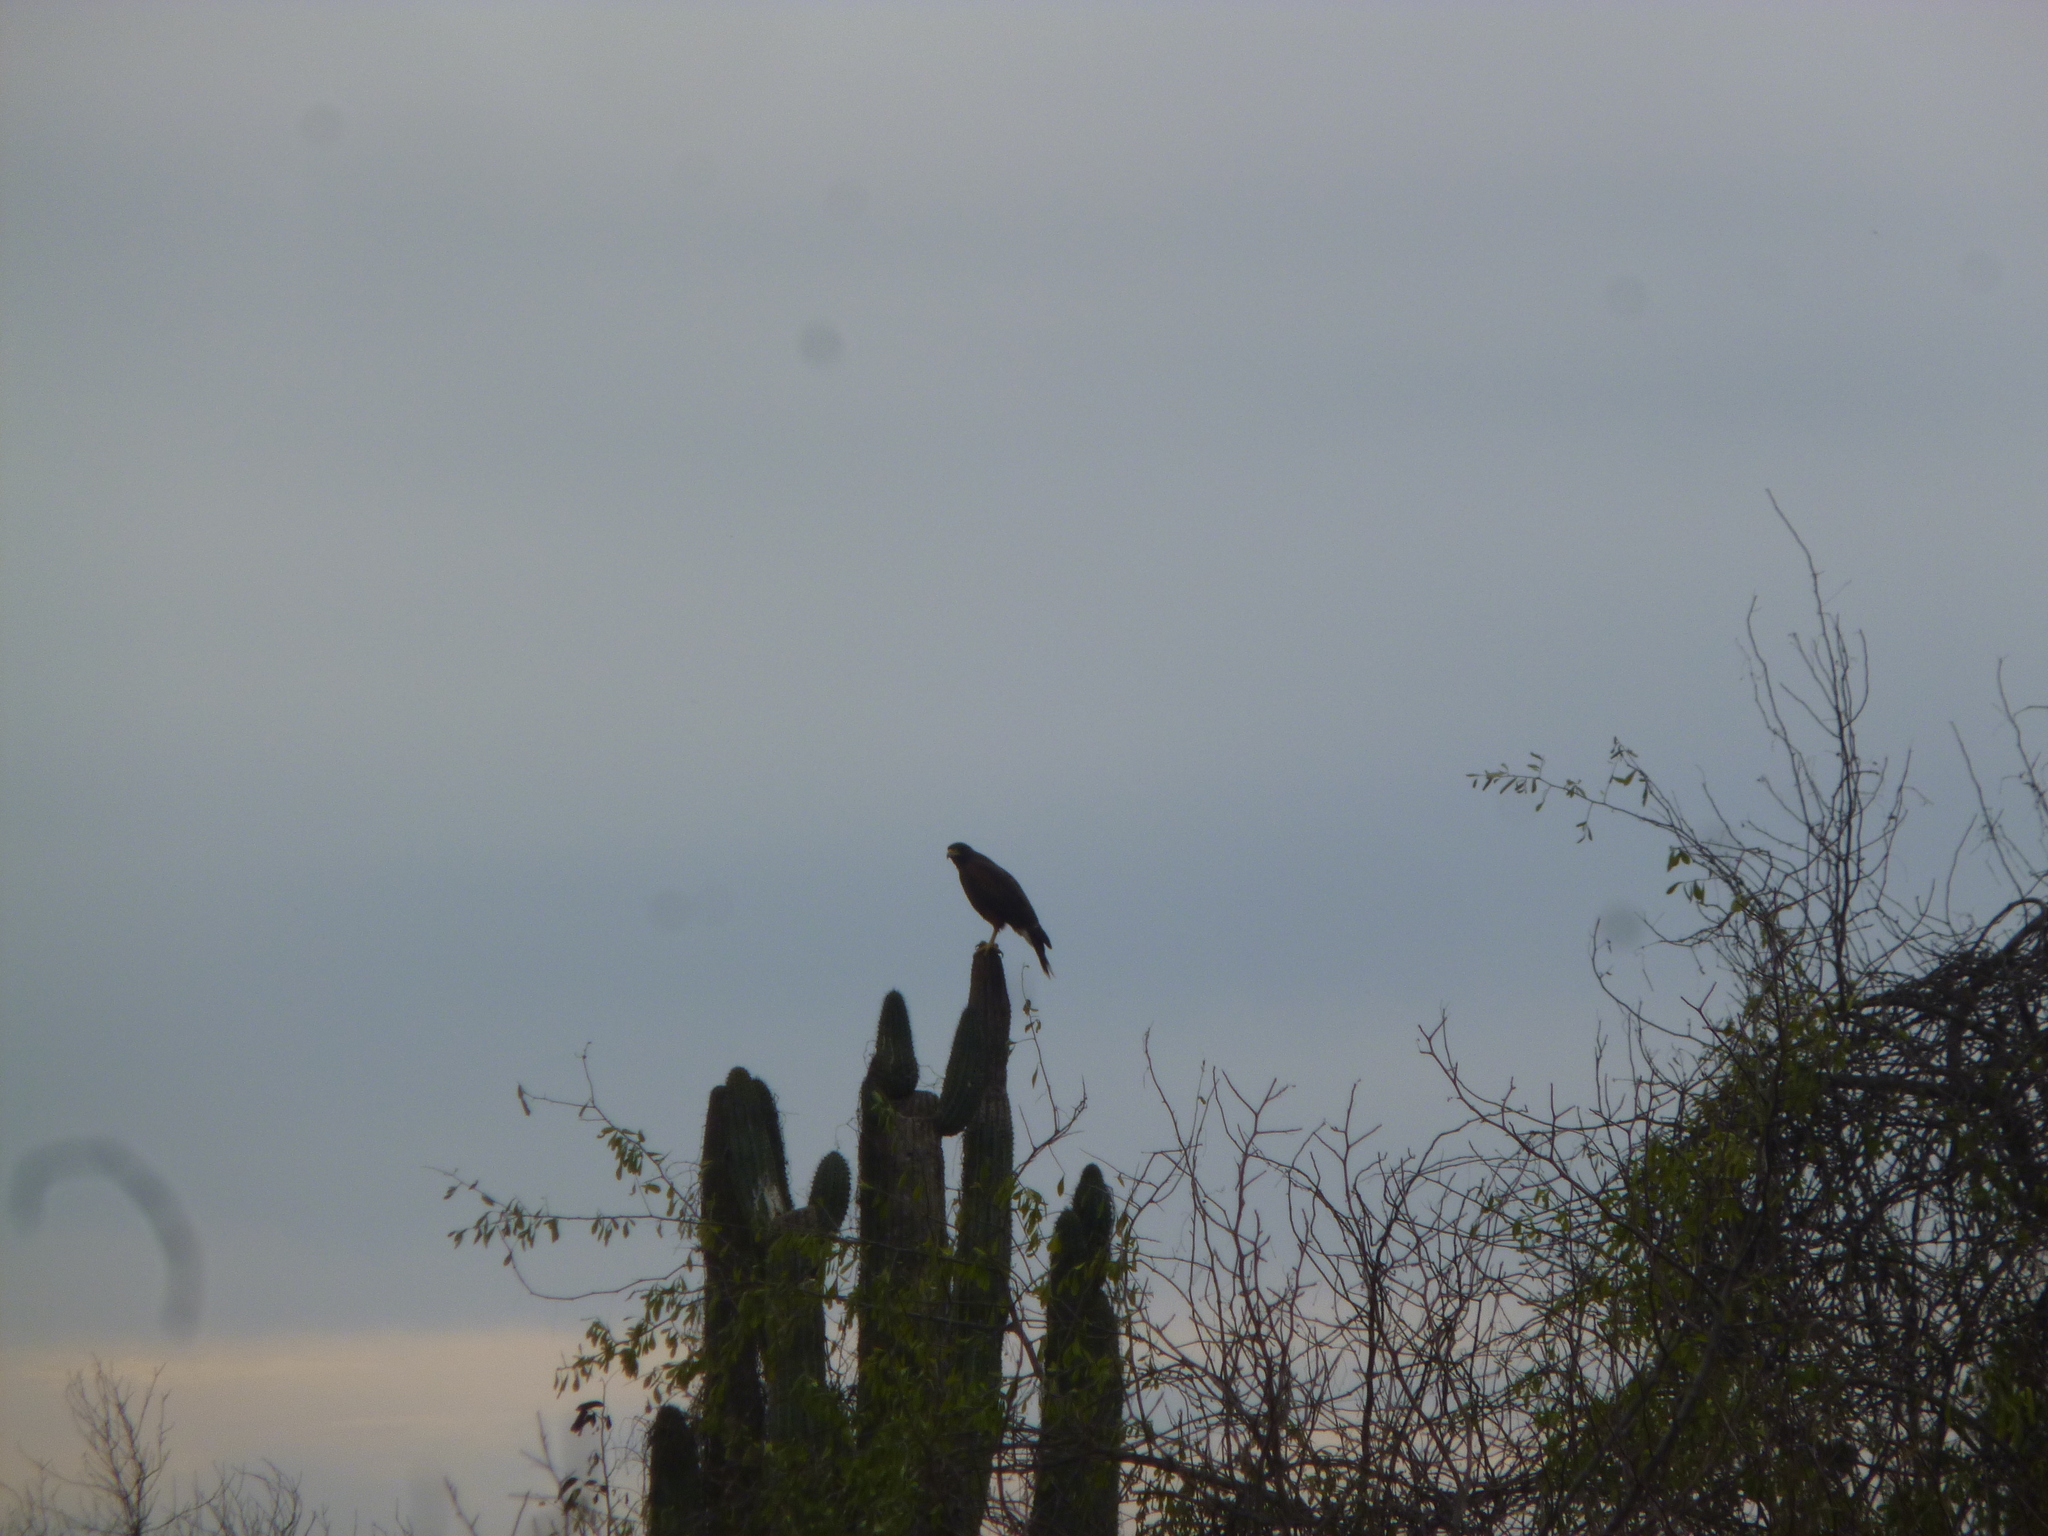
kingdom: Animalia
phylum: Chordata
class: Aves
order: Accipitriformes
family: Accipitridae
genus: Parabuteo
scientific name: Parabuteo unicinctus
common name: Harris's hawk
